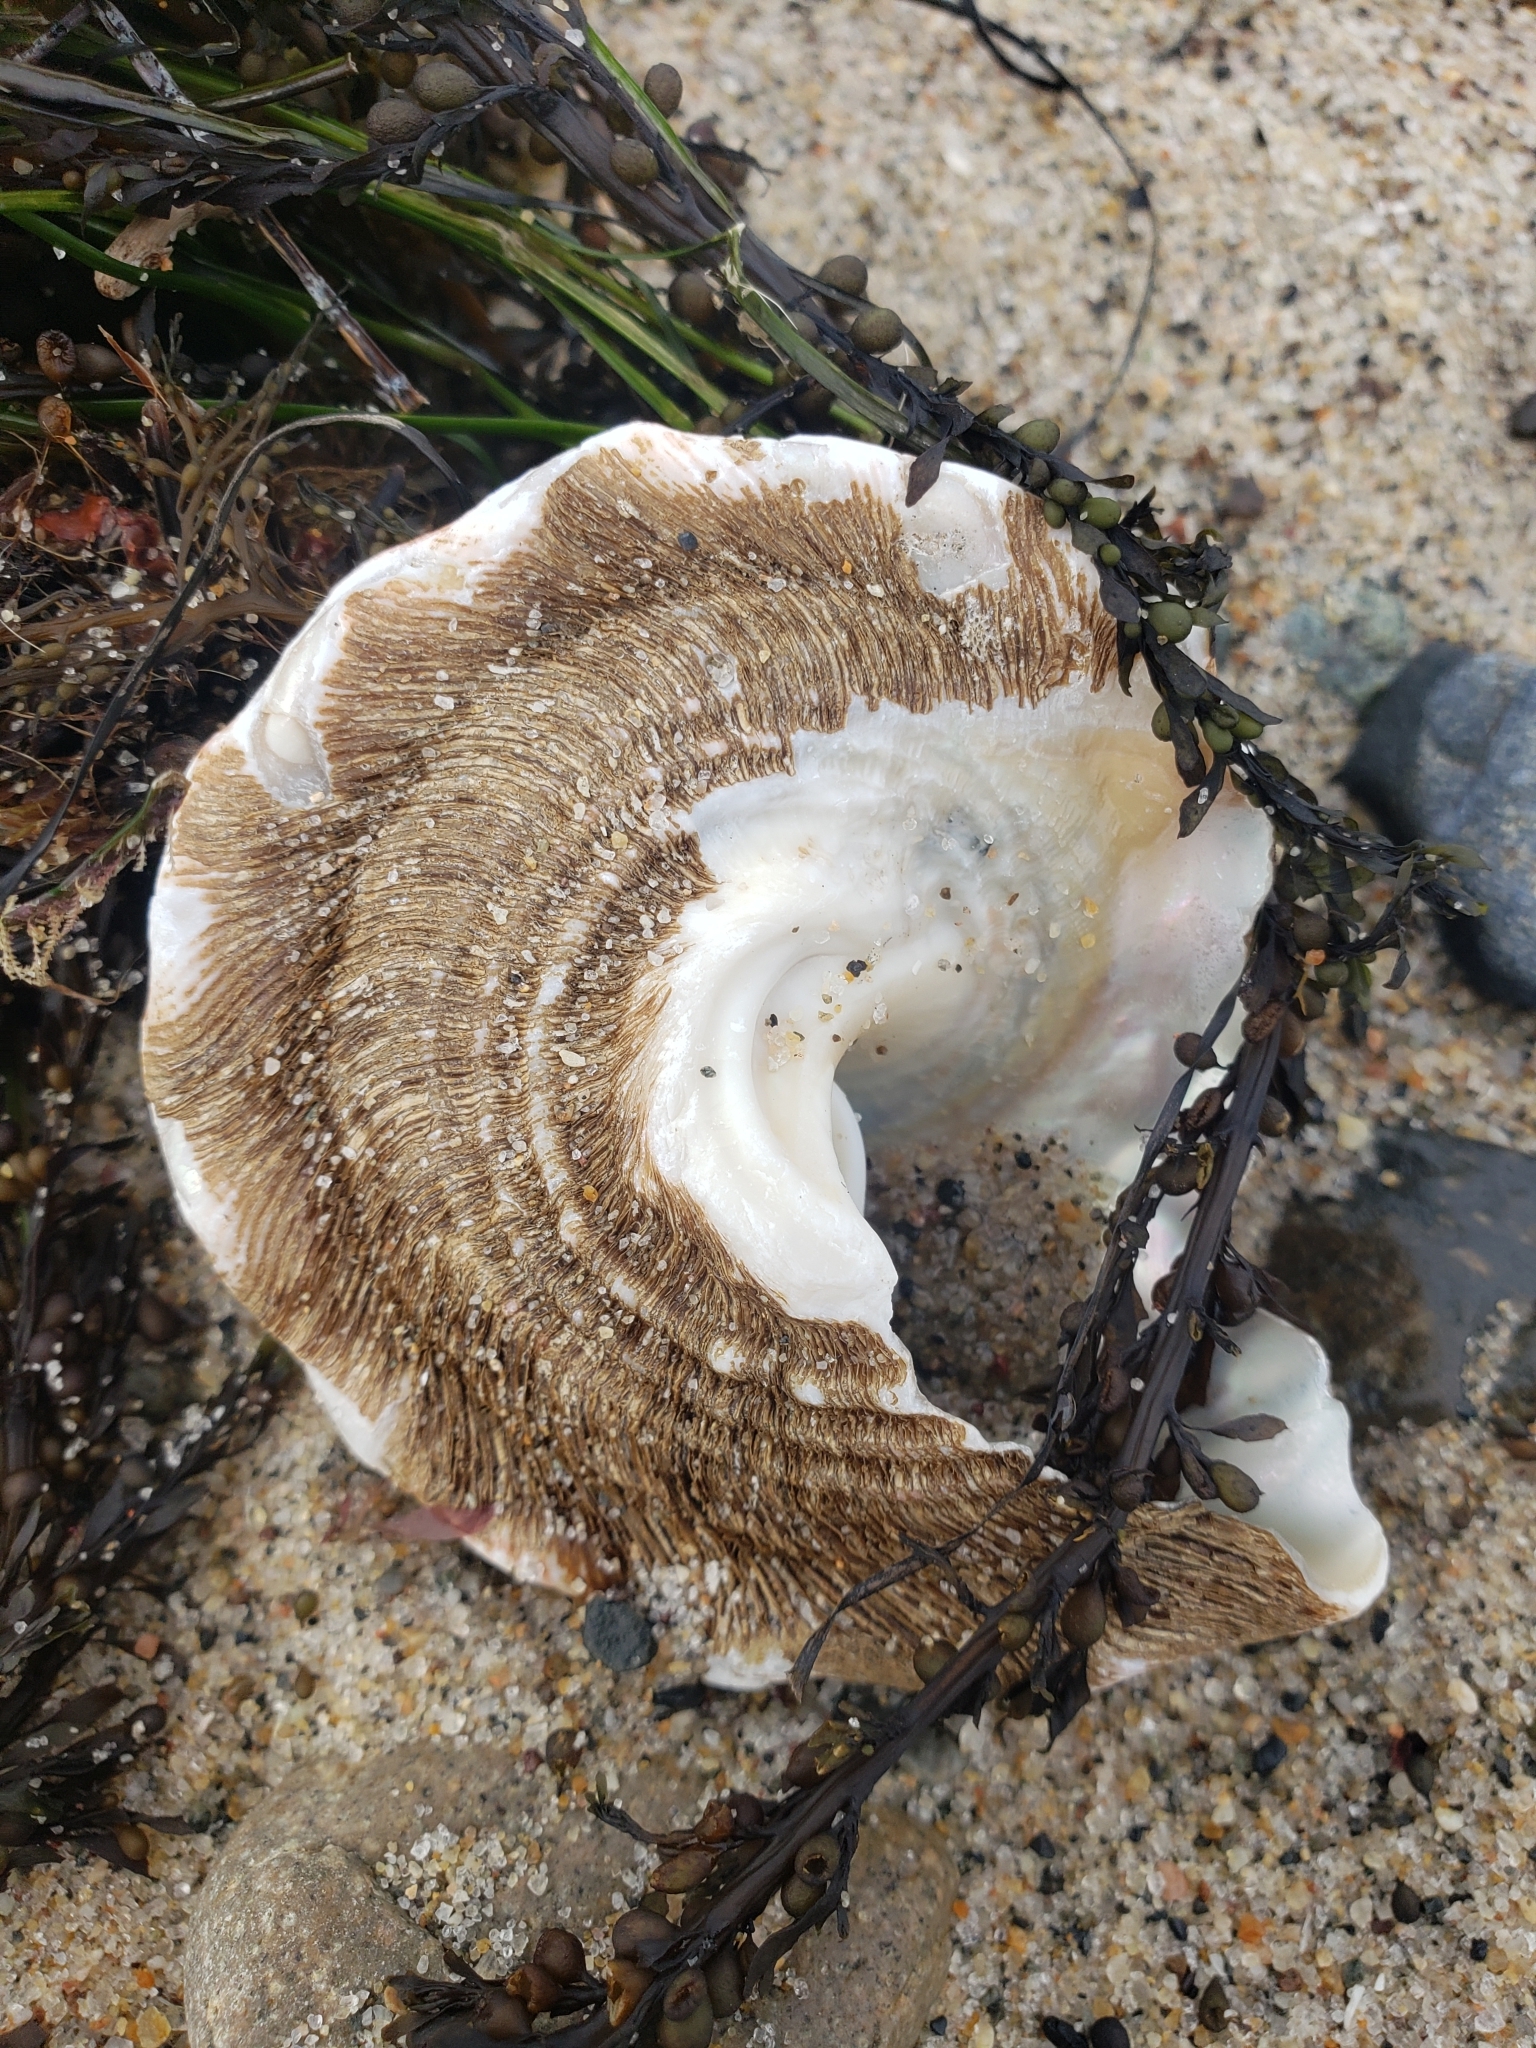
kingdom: Animalia
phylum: Mollusca
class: Gastropoda
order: Trochida
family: Turbinidae
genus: Megastraea
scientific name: Megastraea undosa
